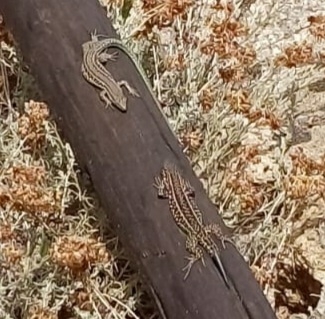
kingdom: Animalia
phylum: Chordata
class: Squamata
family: Lacertidae
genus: Podarcis
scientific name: Podarcis tiliguerta
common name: Tyrrhenian wall lizard
